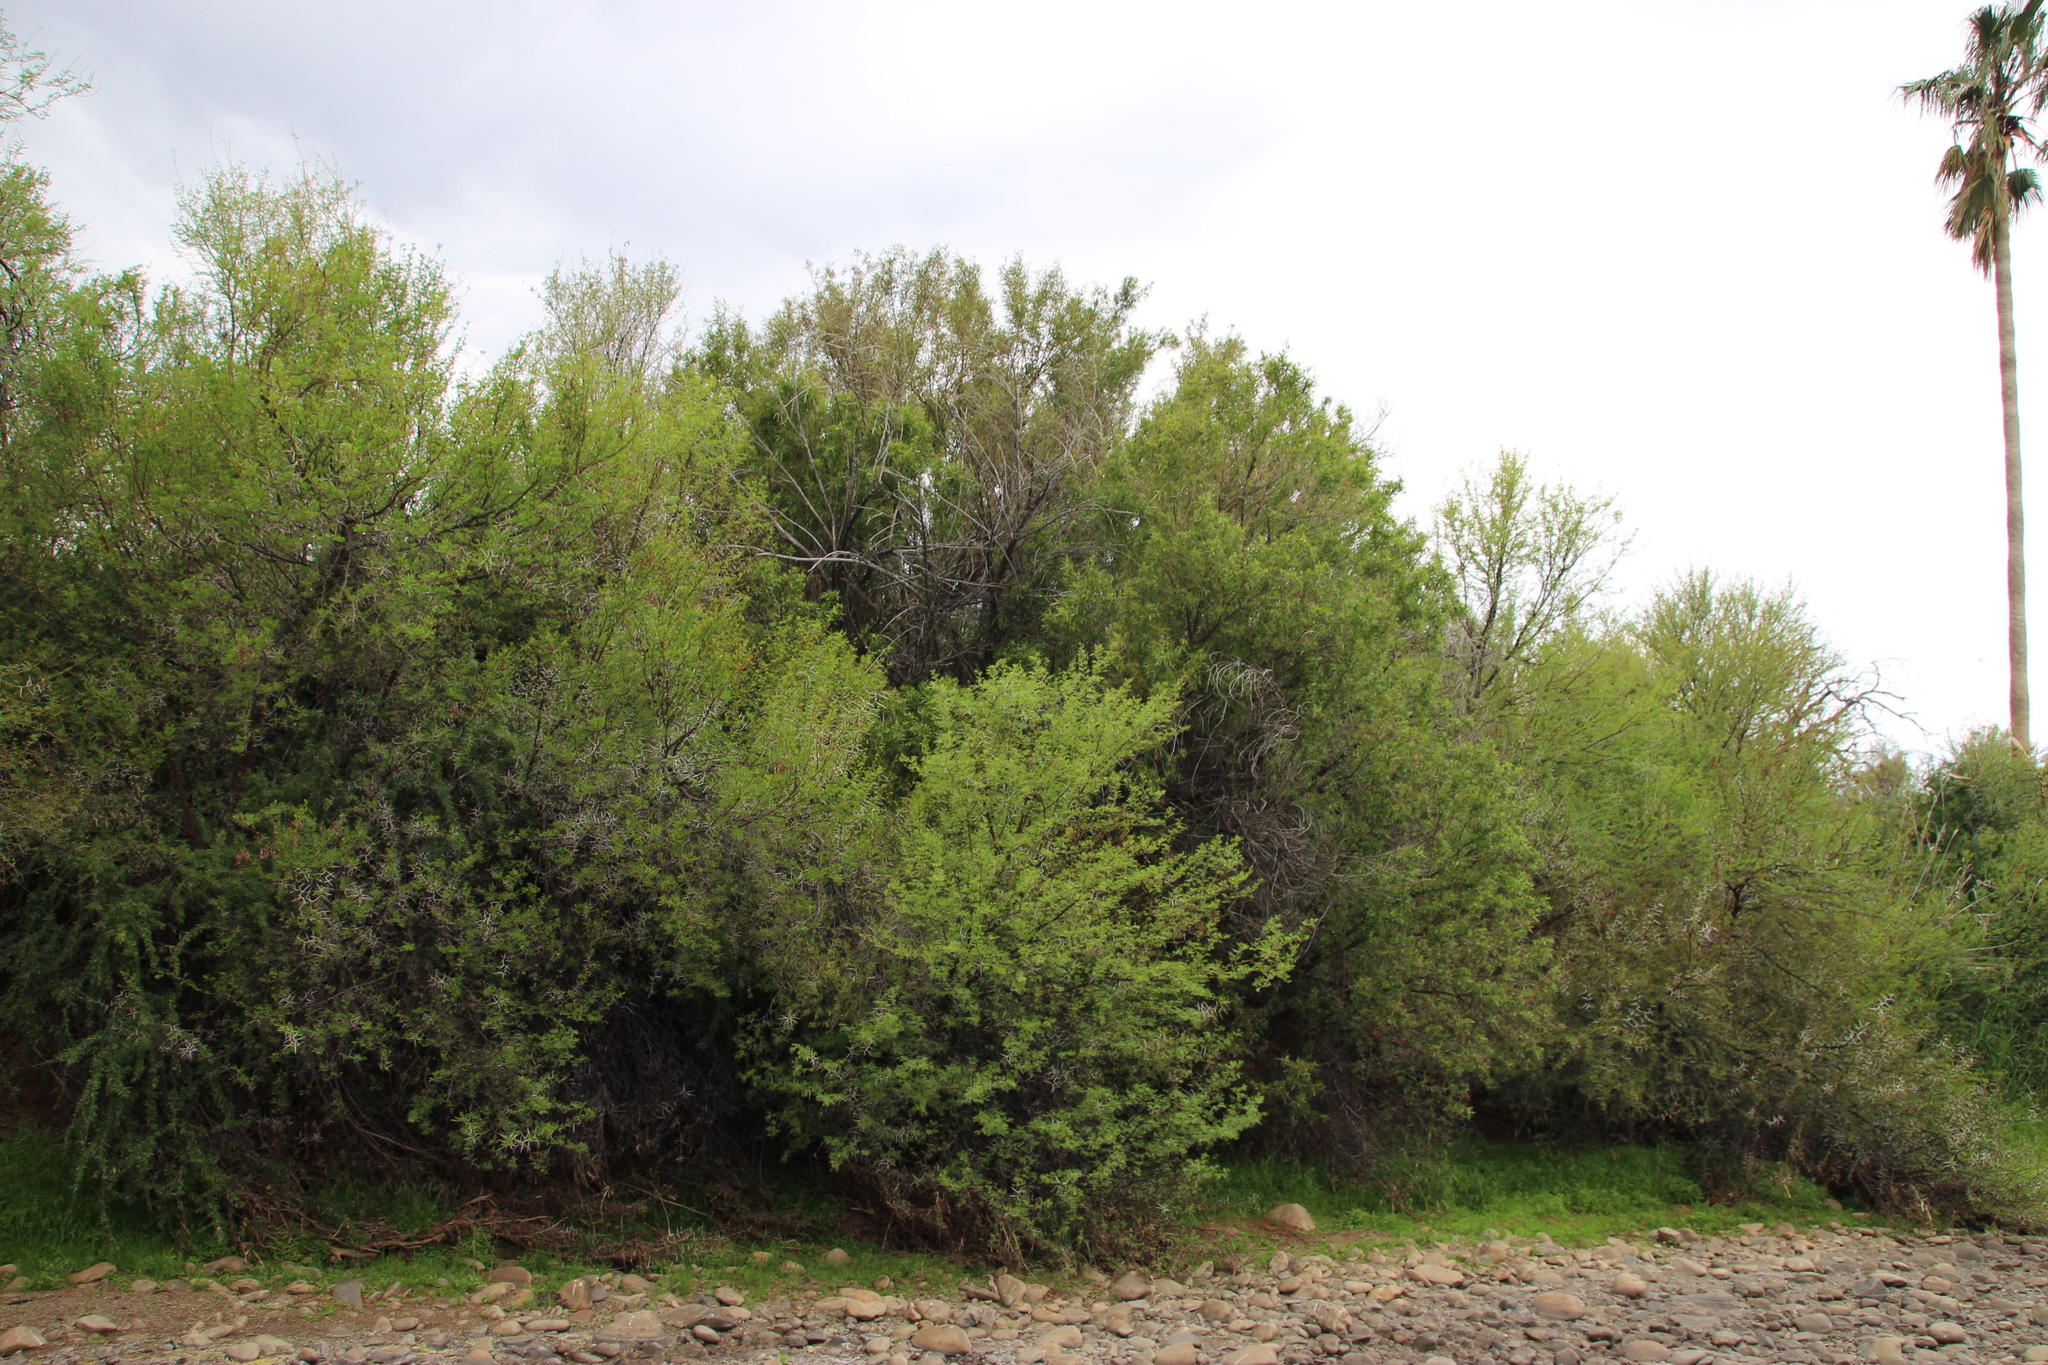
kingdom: Plantae
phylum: Tracheophyta
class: Magnoliopsida
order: Sapindales
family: Anacardiaceae
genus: Searsia
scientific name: Searsia lancea
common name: Cashew
